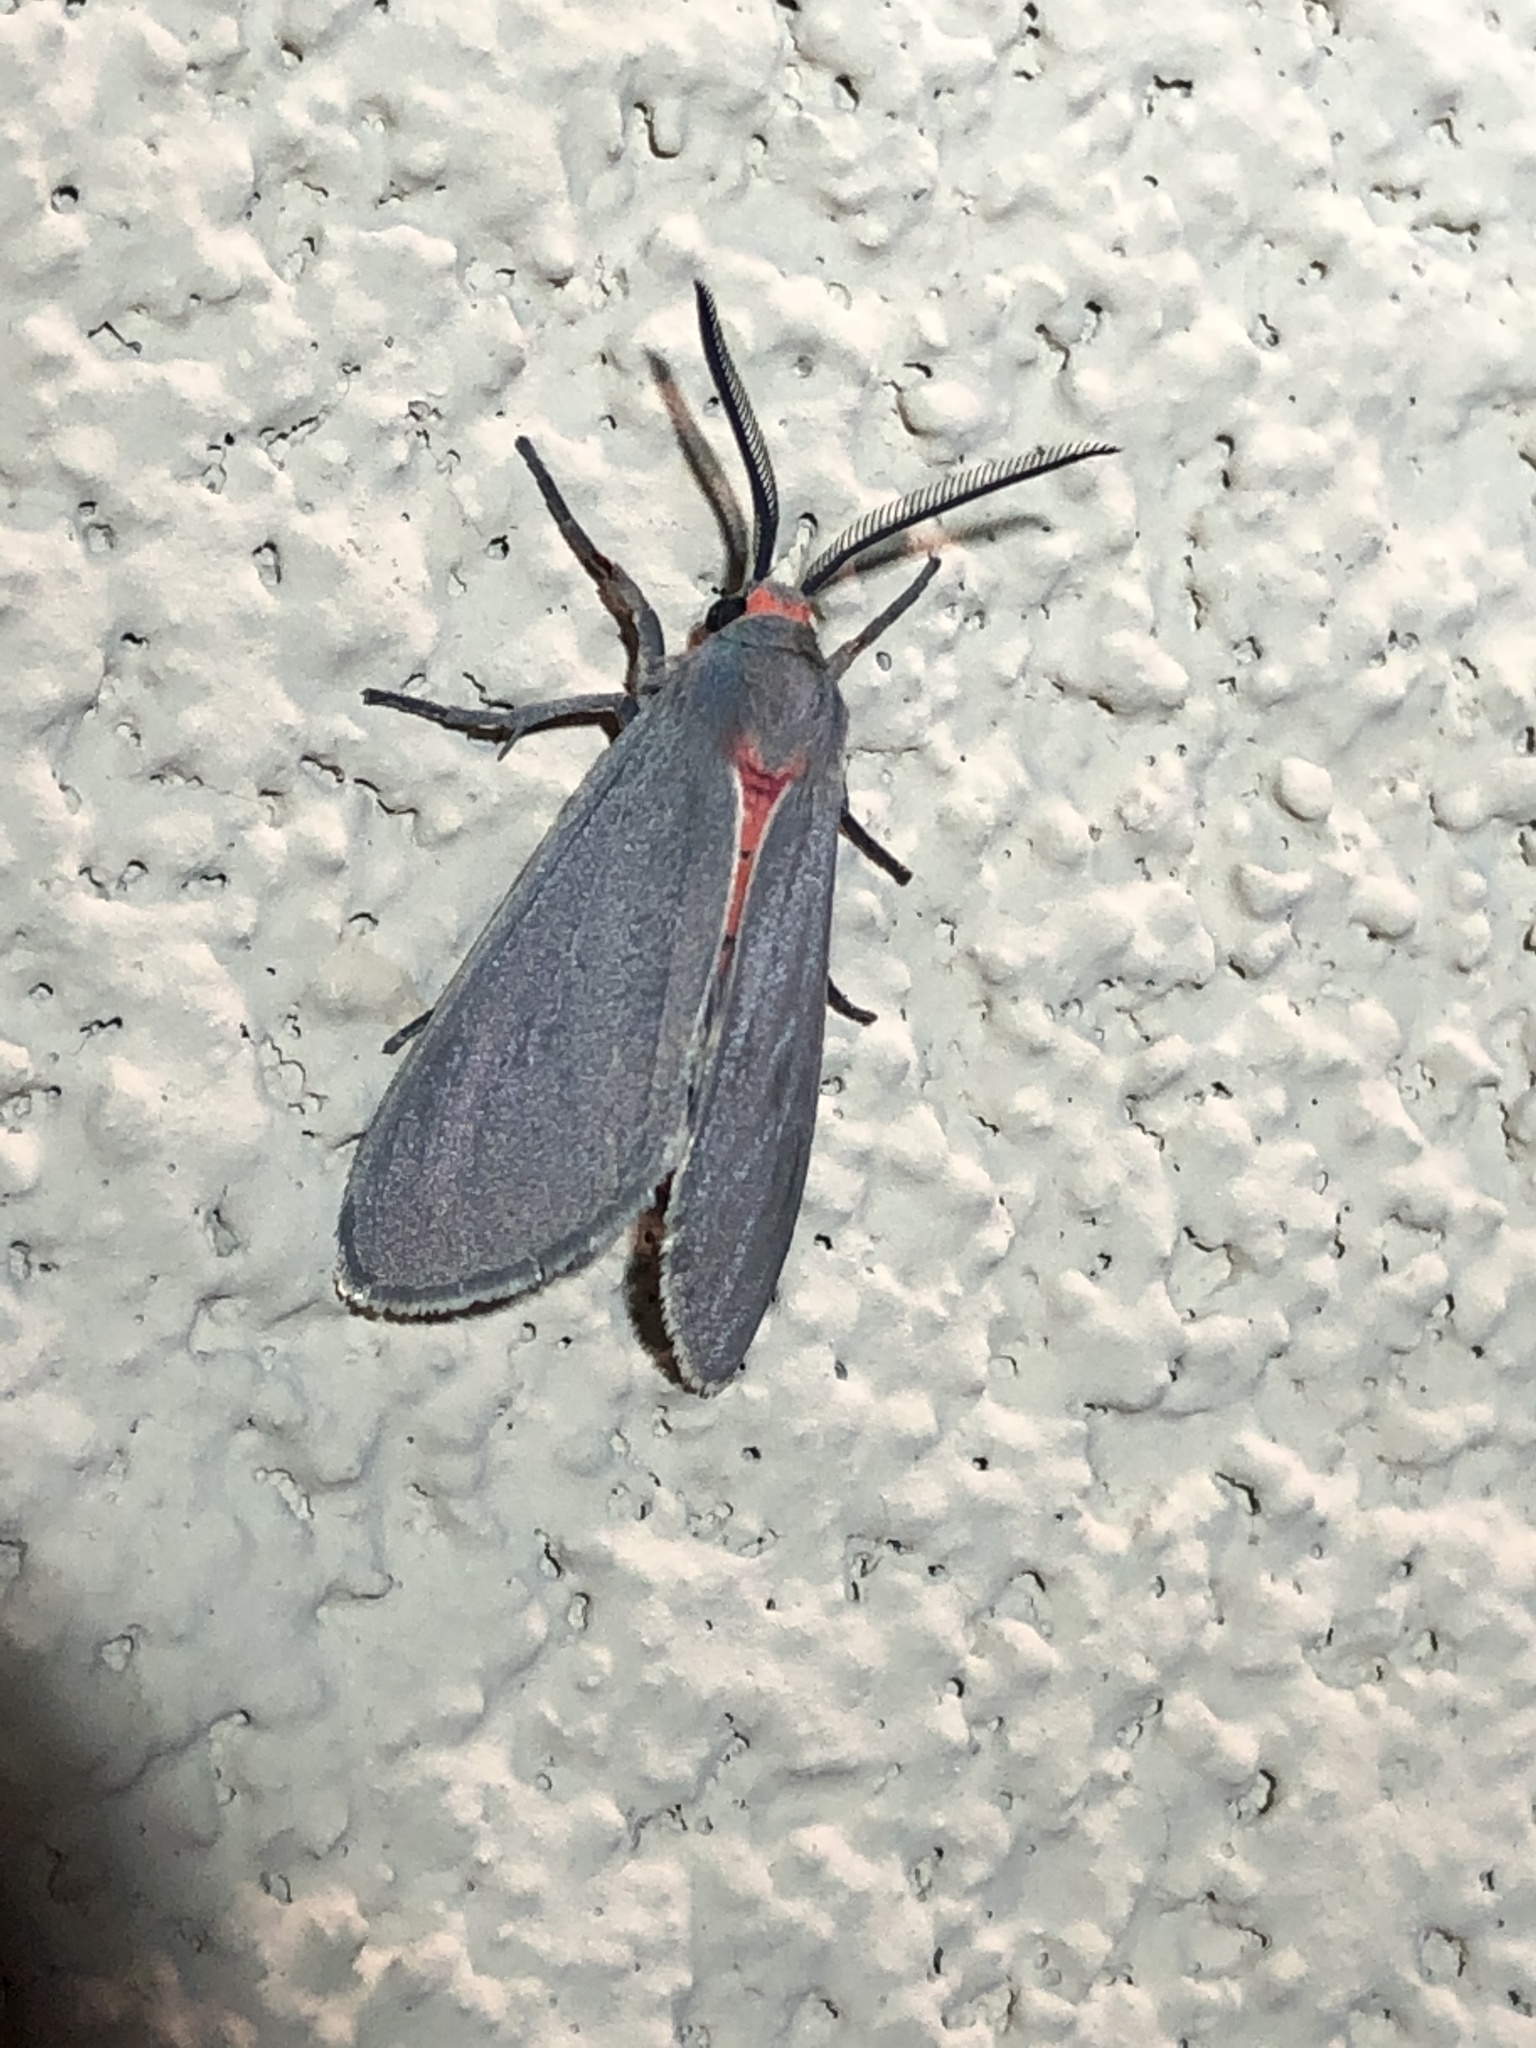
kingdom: Animalia
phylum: Arthropoda
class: Insecta
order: Lepidoptera
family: Erebidae
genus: Pygarctia
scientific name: Pygarctia murina
